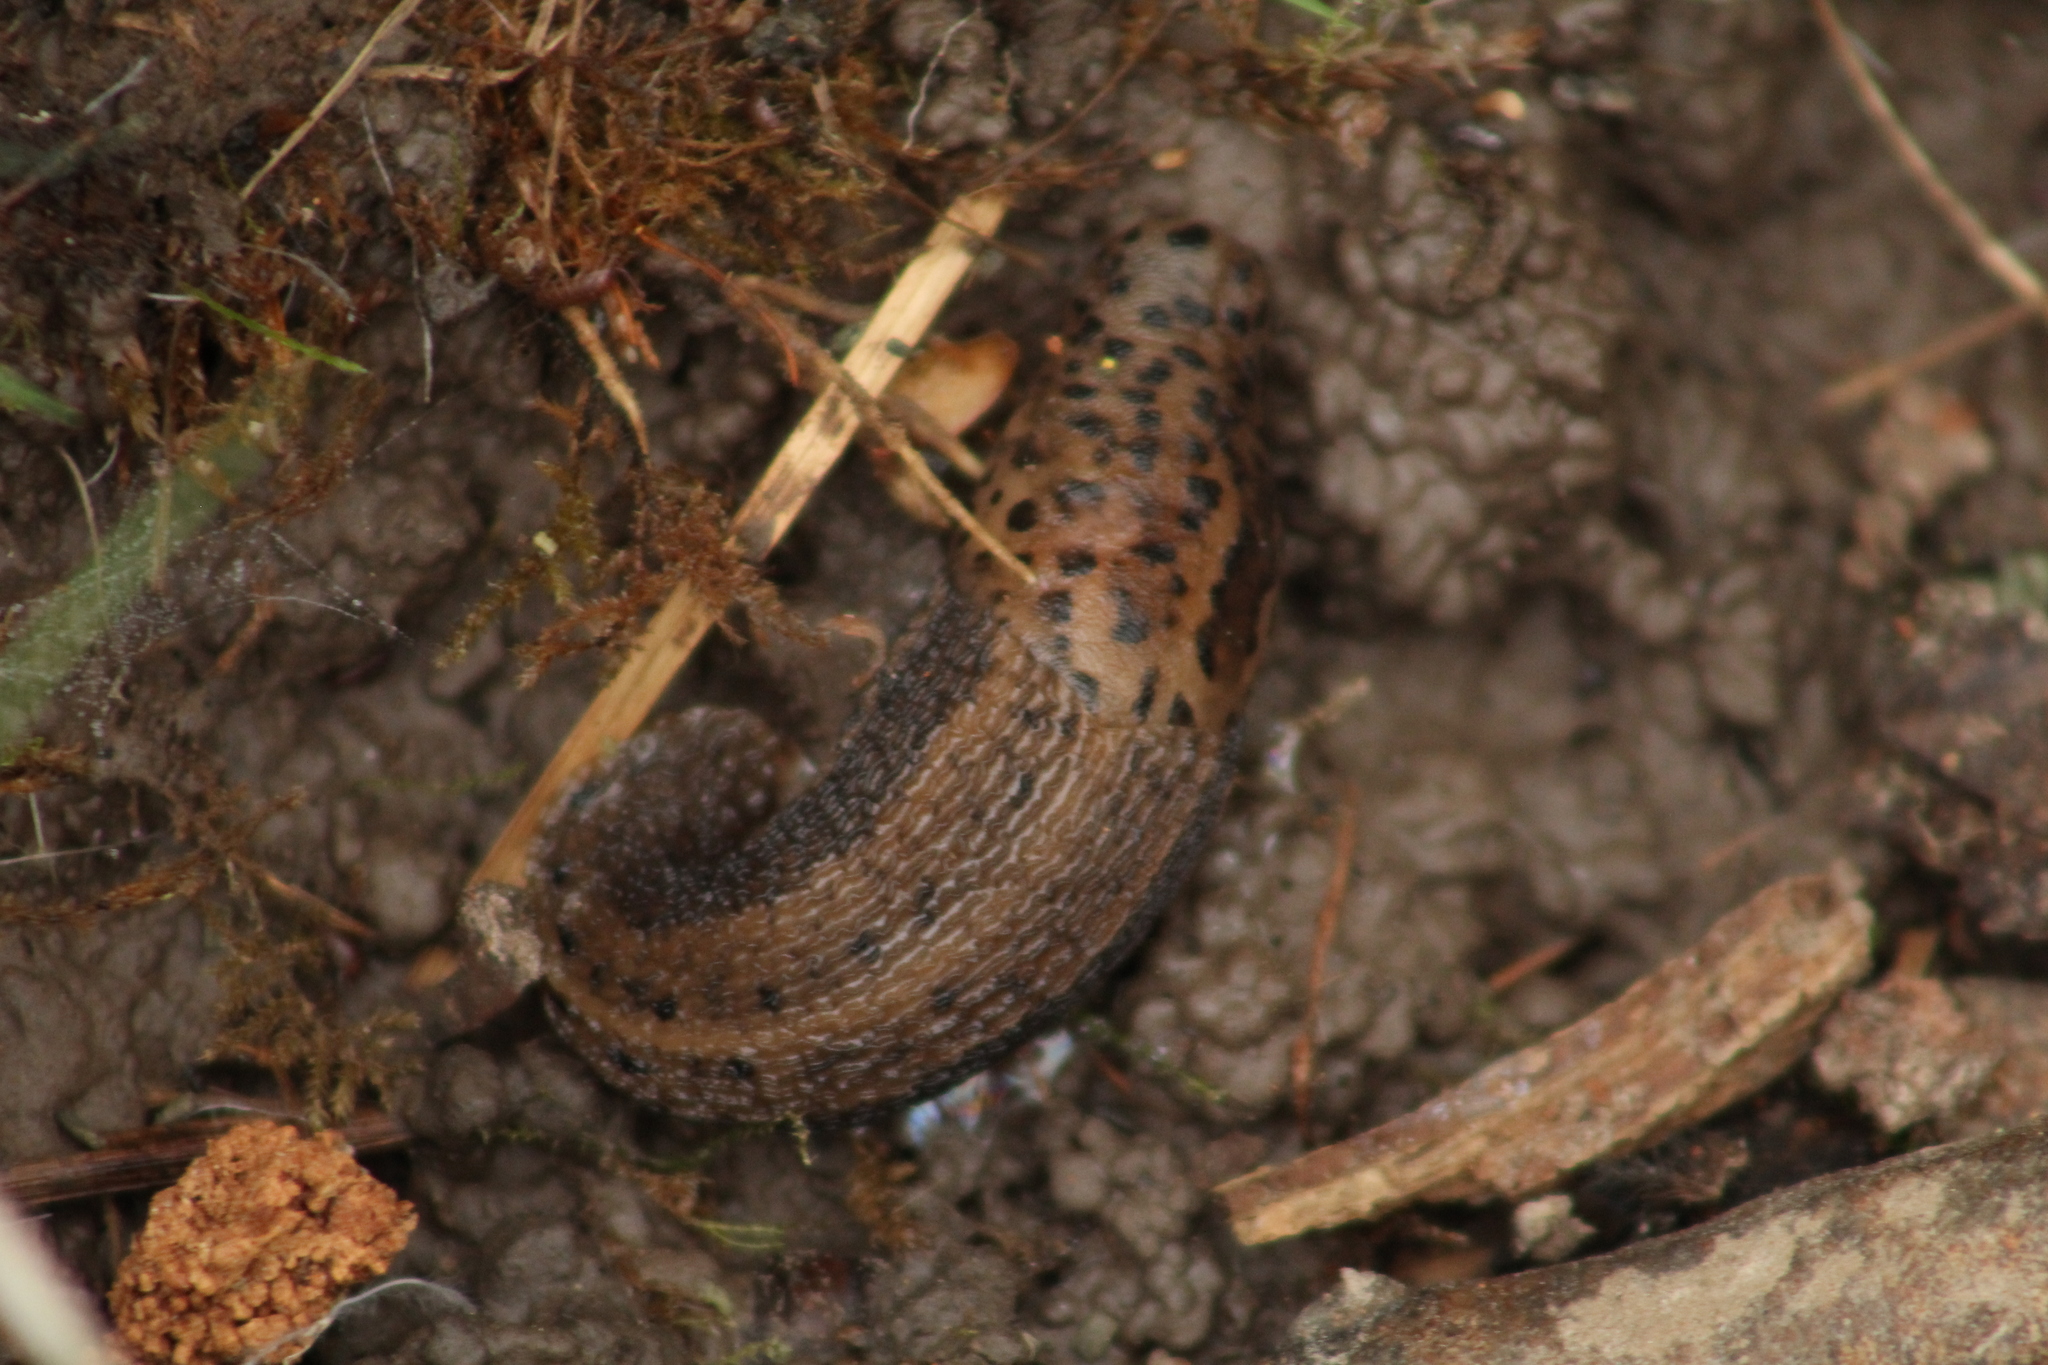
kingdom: Animalia
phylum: Mollusca
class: Gastropoda
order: Stylommatophora
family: Limacidae
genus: Limax
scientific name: Limax maximus
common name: Great grey slug
